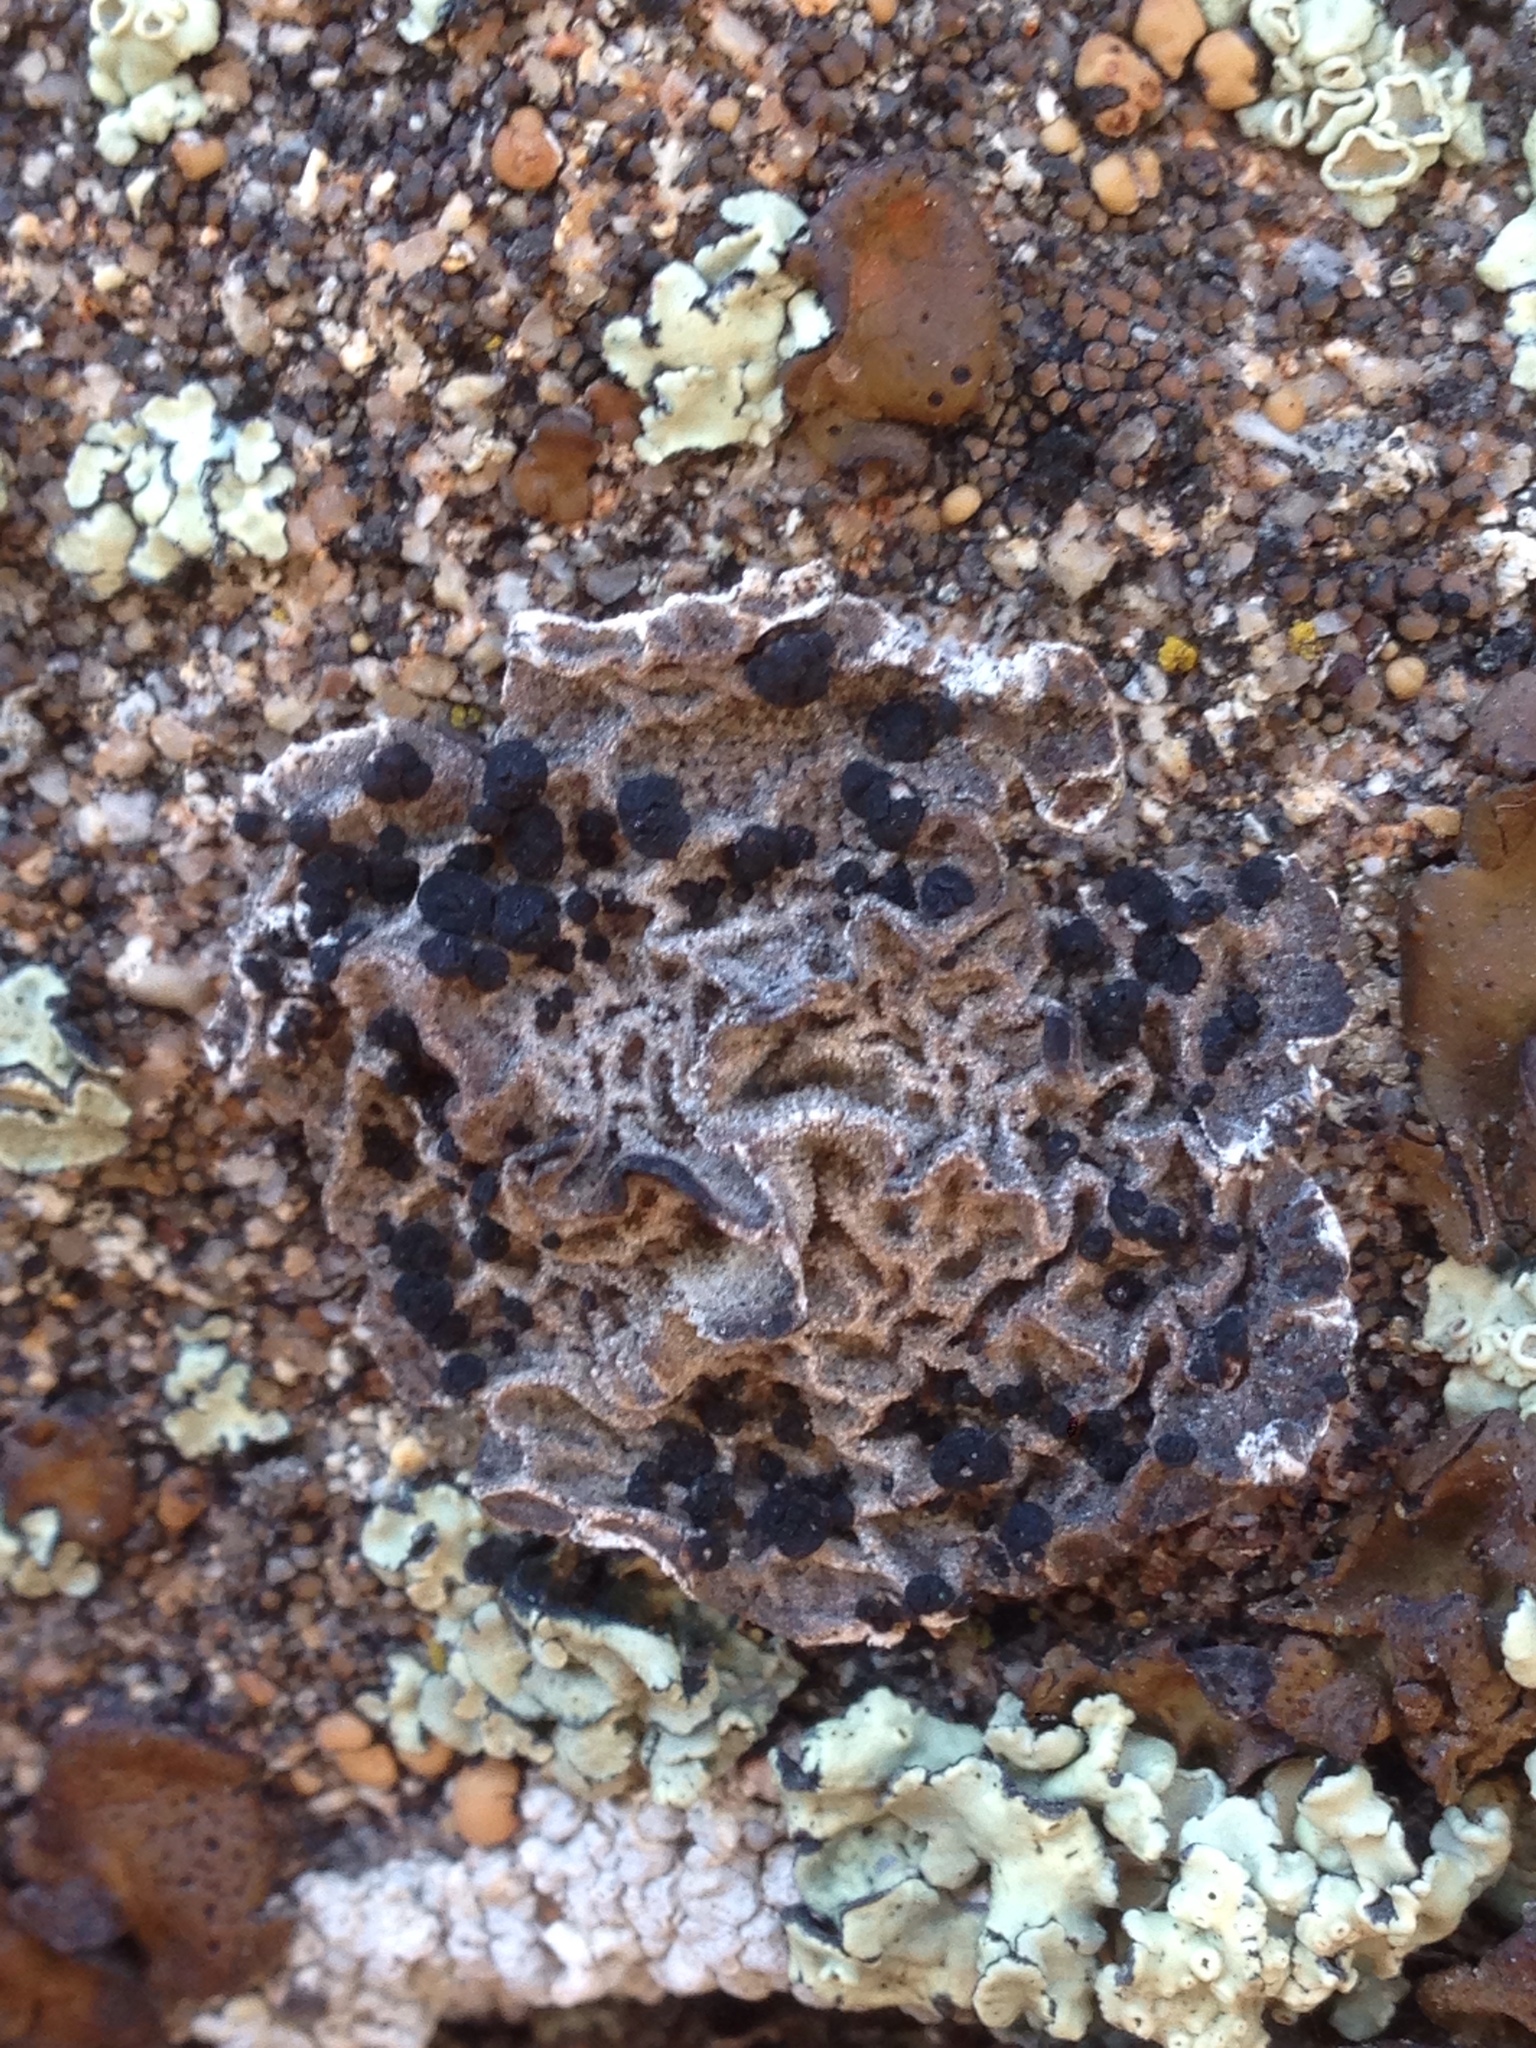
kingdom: Fungi
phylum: Ascomycota
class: Lecanoromycetes
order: Umbilicariales
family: Umbilicariaceae
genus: Umbilicaria
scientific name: Umbilicaria krascheninnikovii
